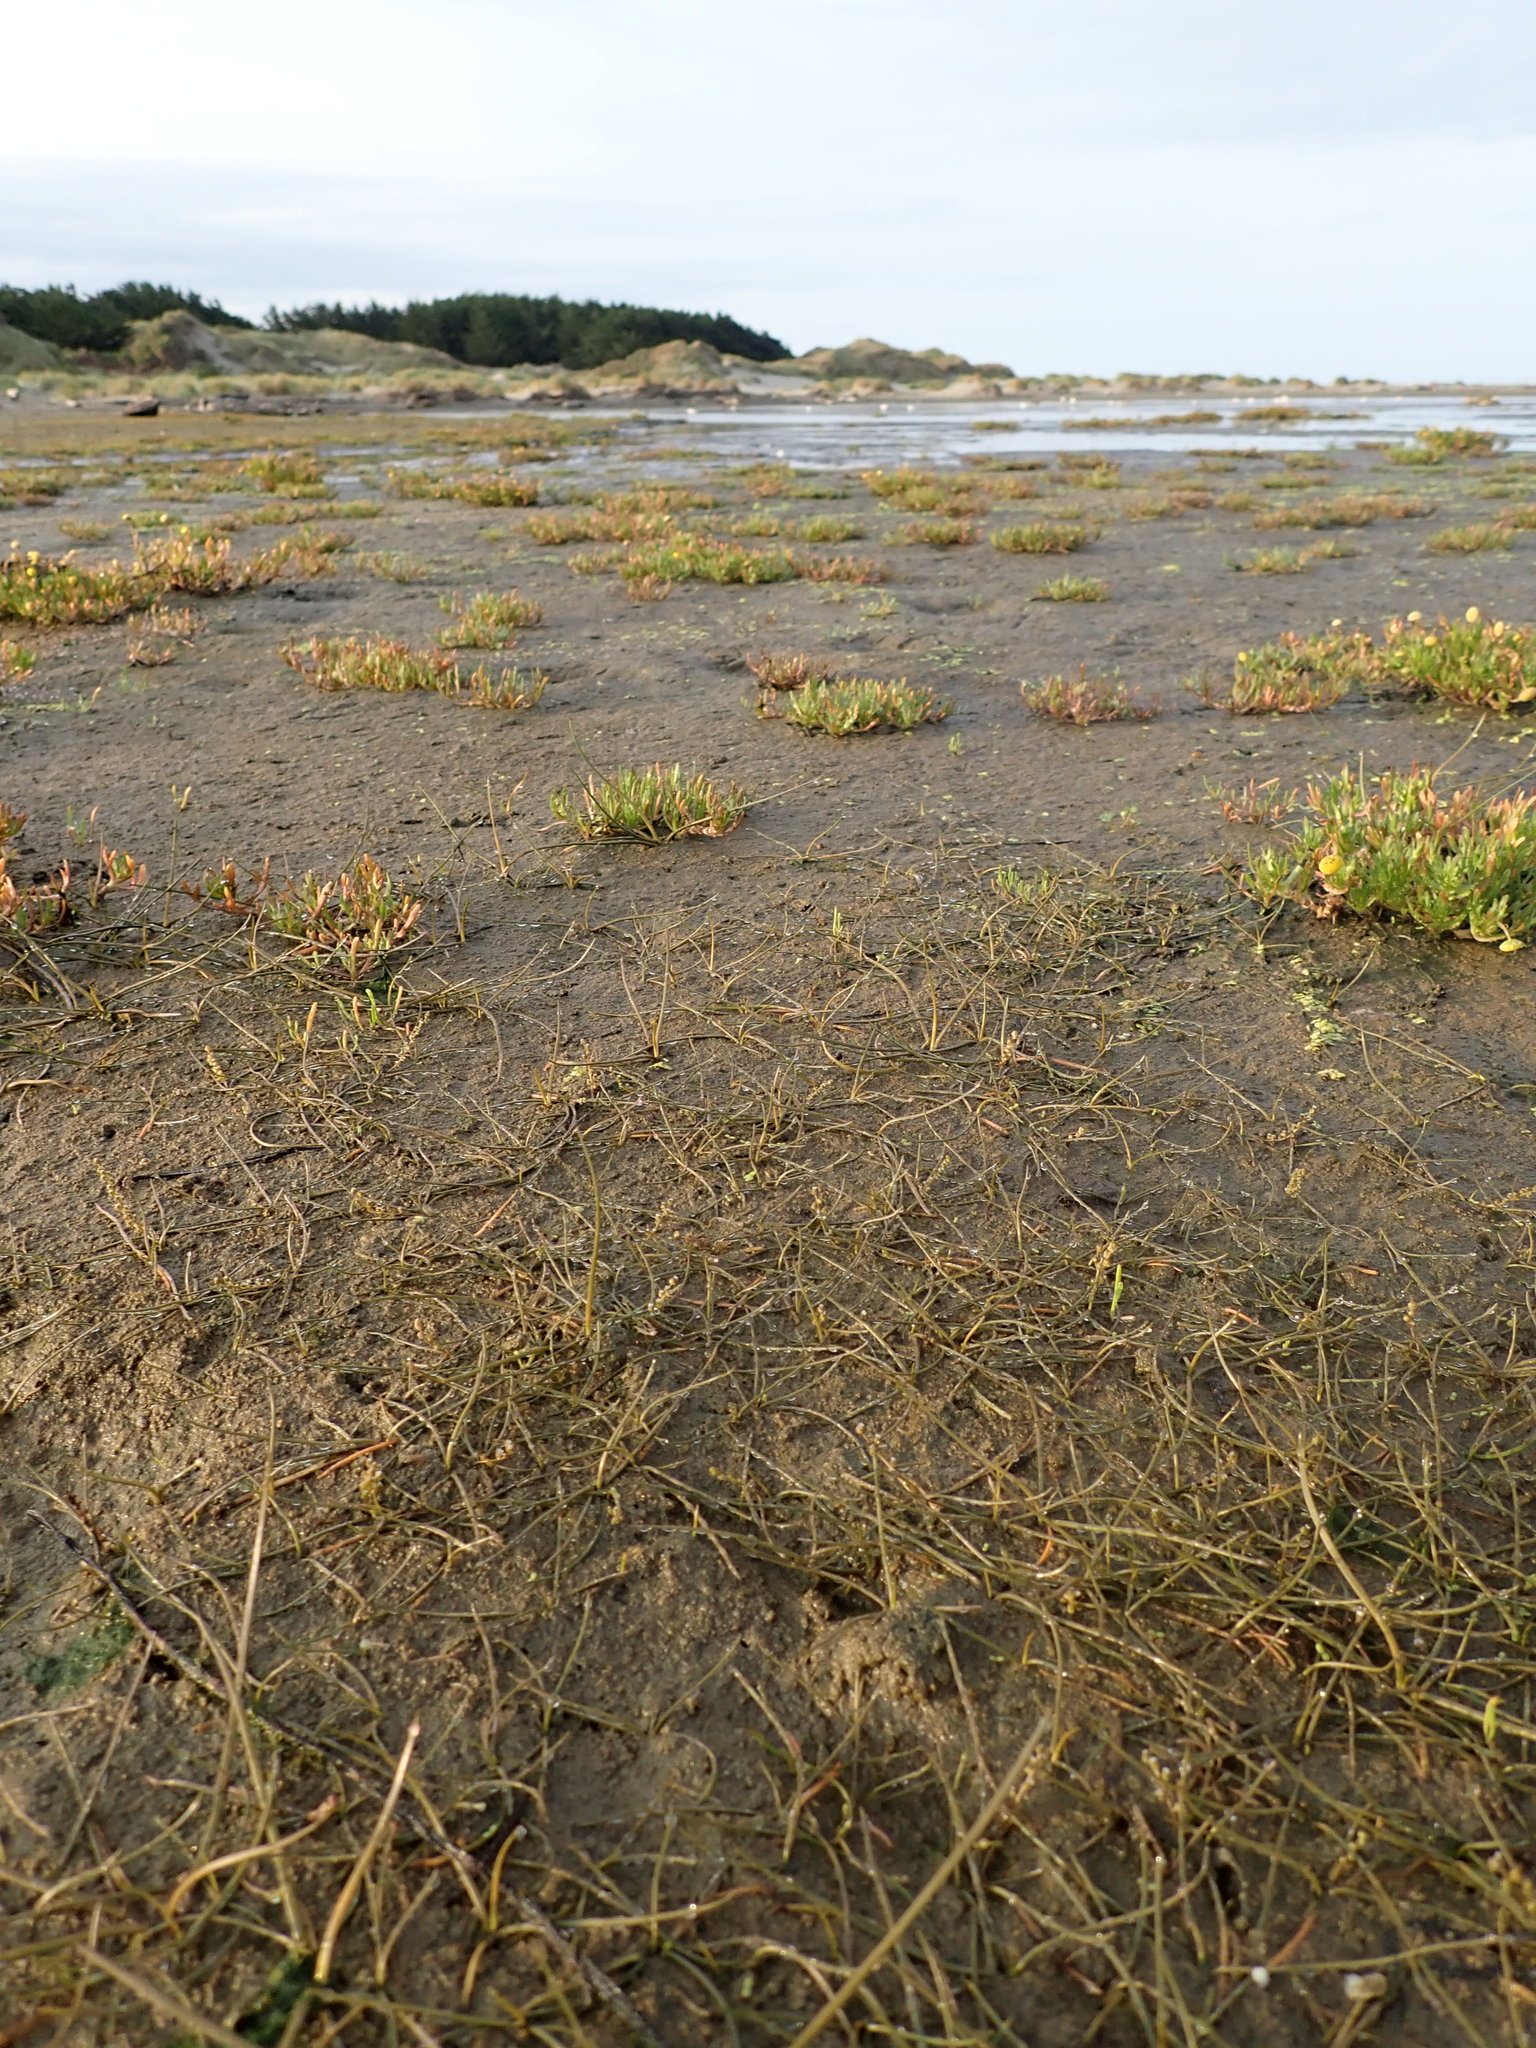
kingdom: Plantae
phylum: Tracheophyta
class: Liliopsida
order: Alismatales
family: Juncaginaceae
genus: Triglochin
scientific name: Triglochin striata
